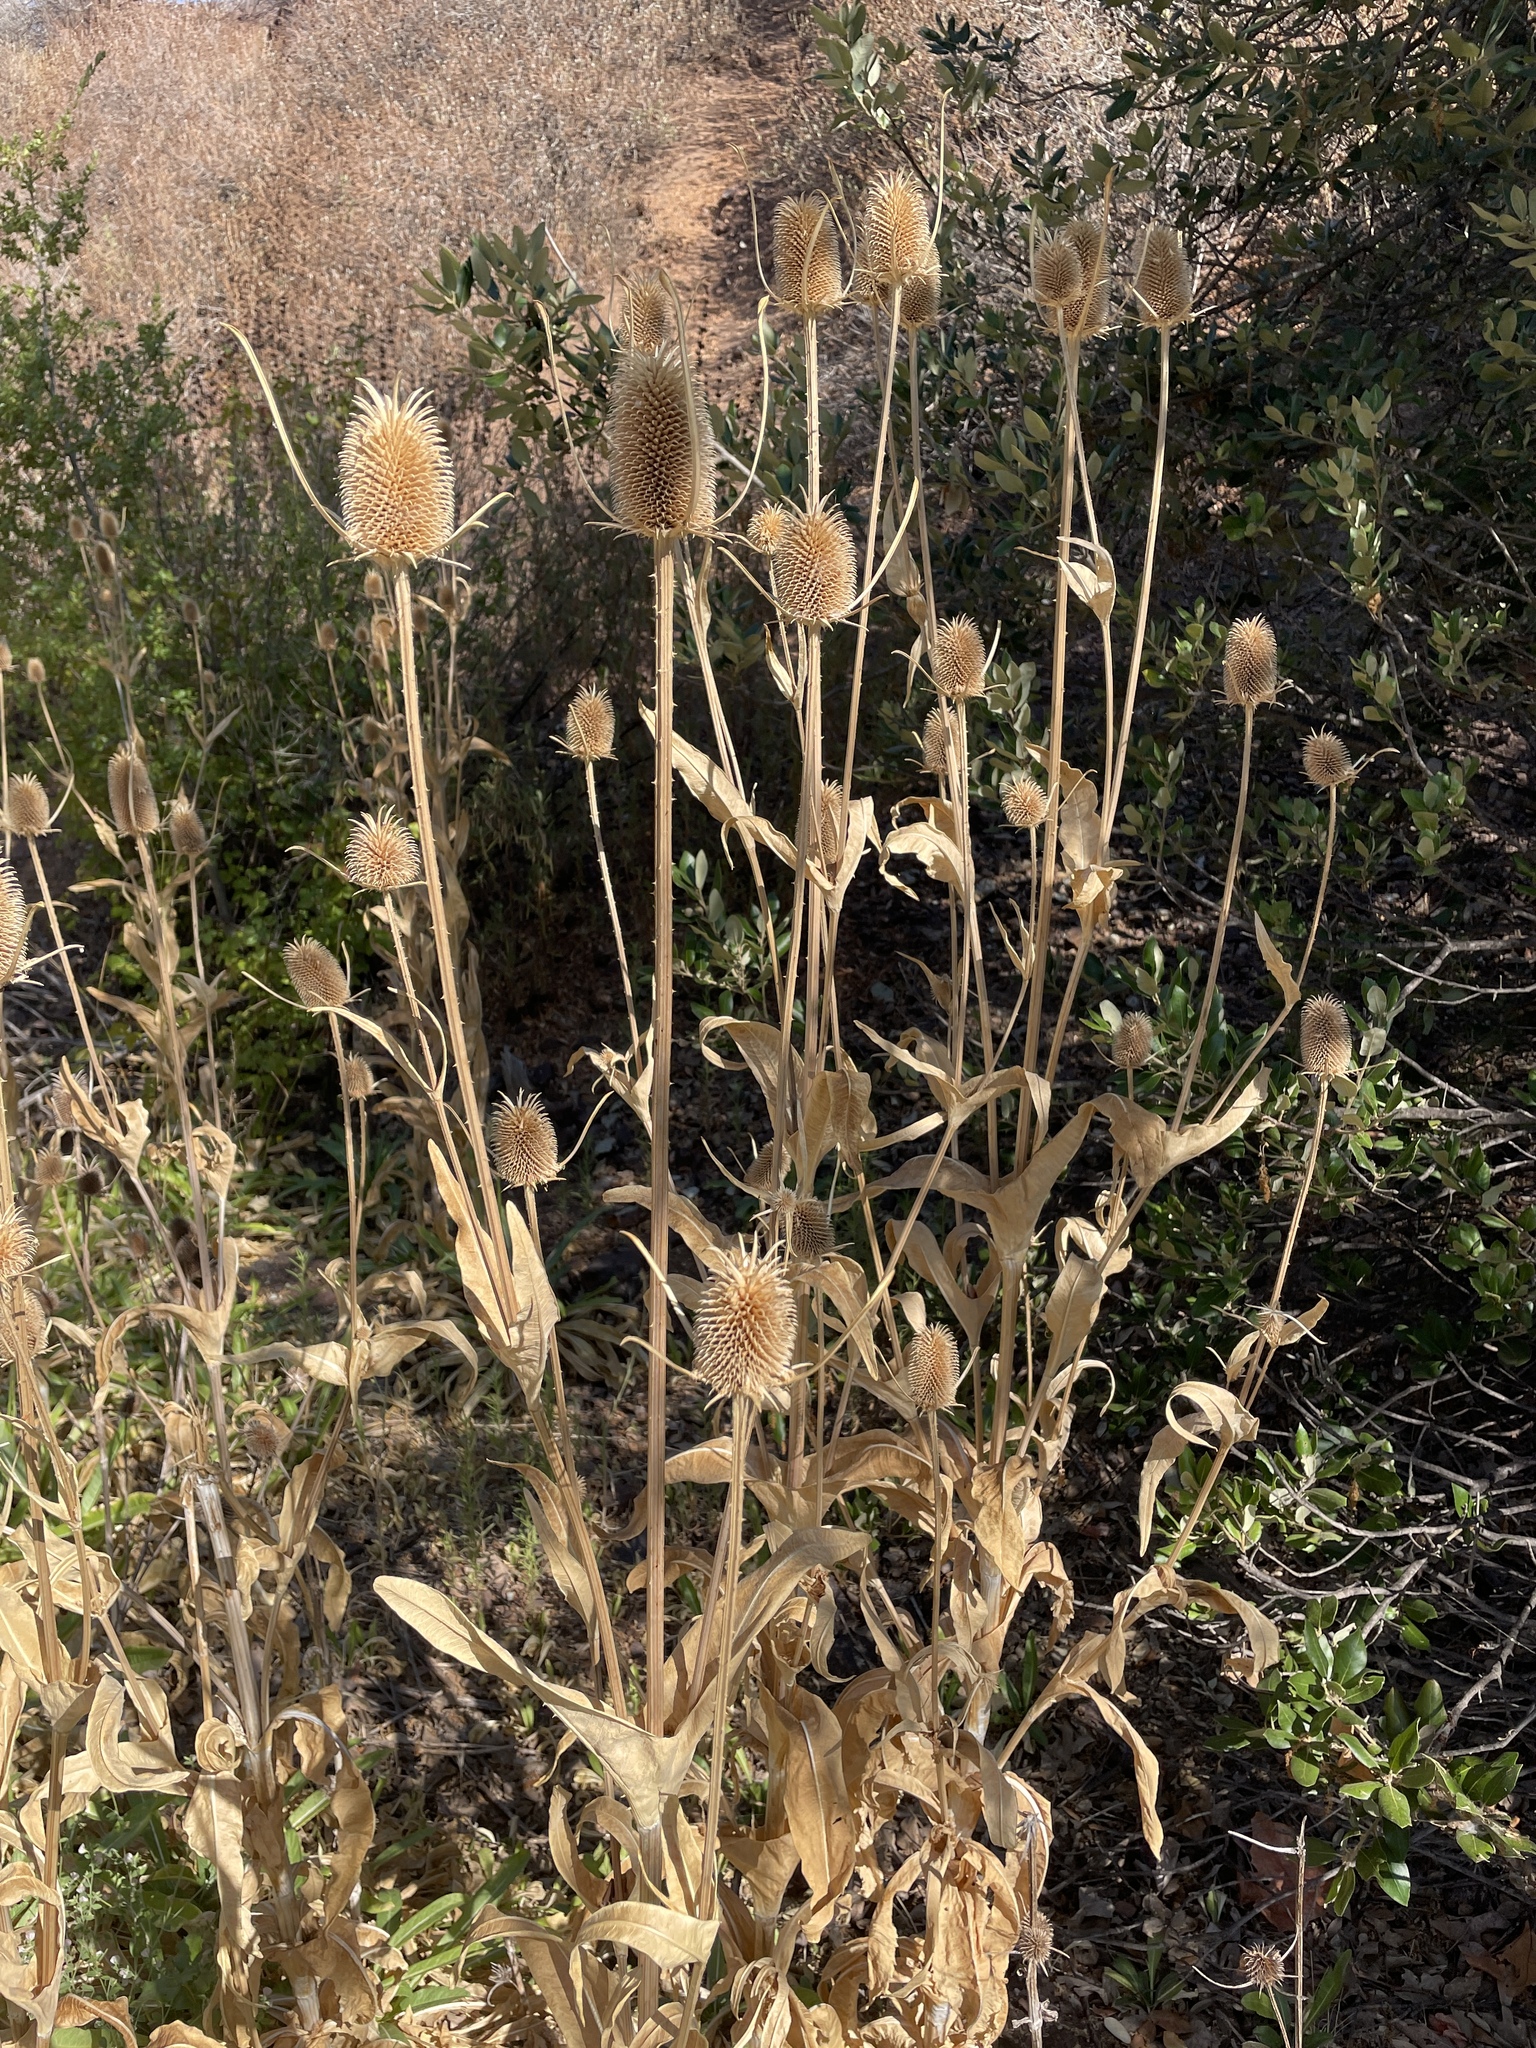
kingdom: Plantae
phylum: Tracheophyta
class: Magnoliopsida
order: Dipsacales
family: Caprifoliaceae
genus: Dipsacus
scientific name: Dipsacus sativus
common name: Fuller's teasel
